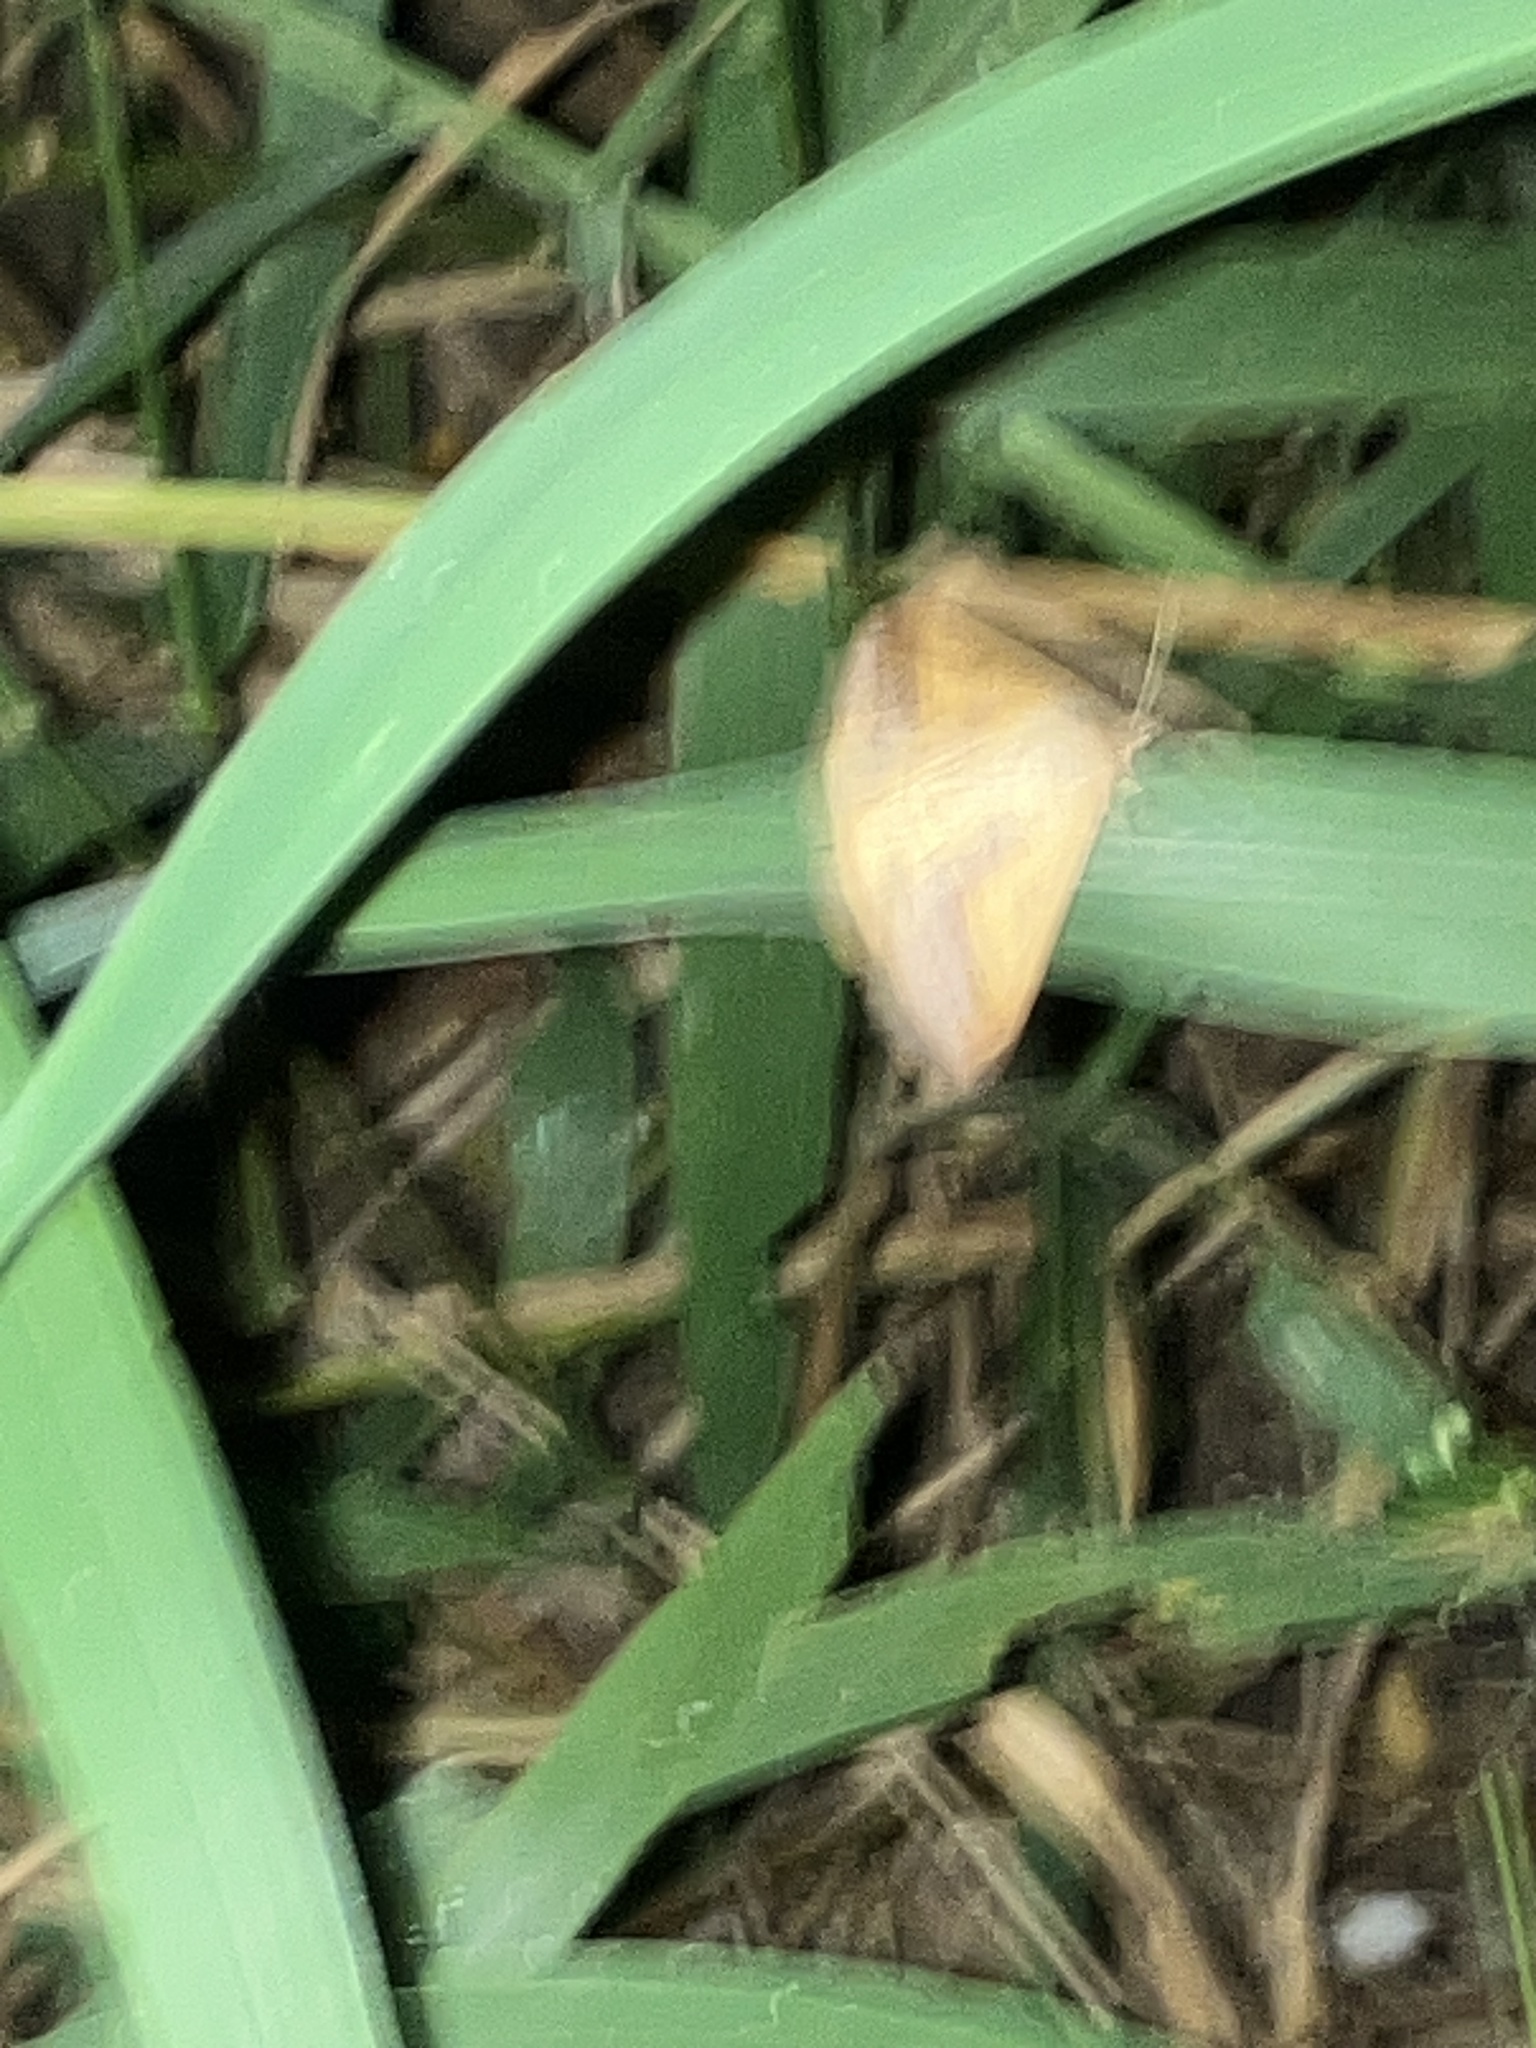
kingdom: Animalia
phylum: Arthropoda
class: Insecta
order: Lepidoptera
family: Erebidae
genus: Mocis
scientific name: Mocis disseverans
